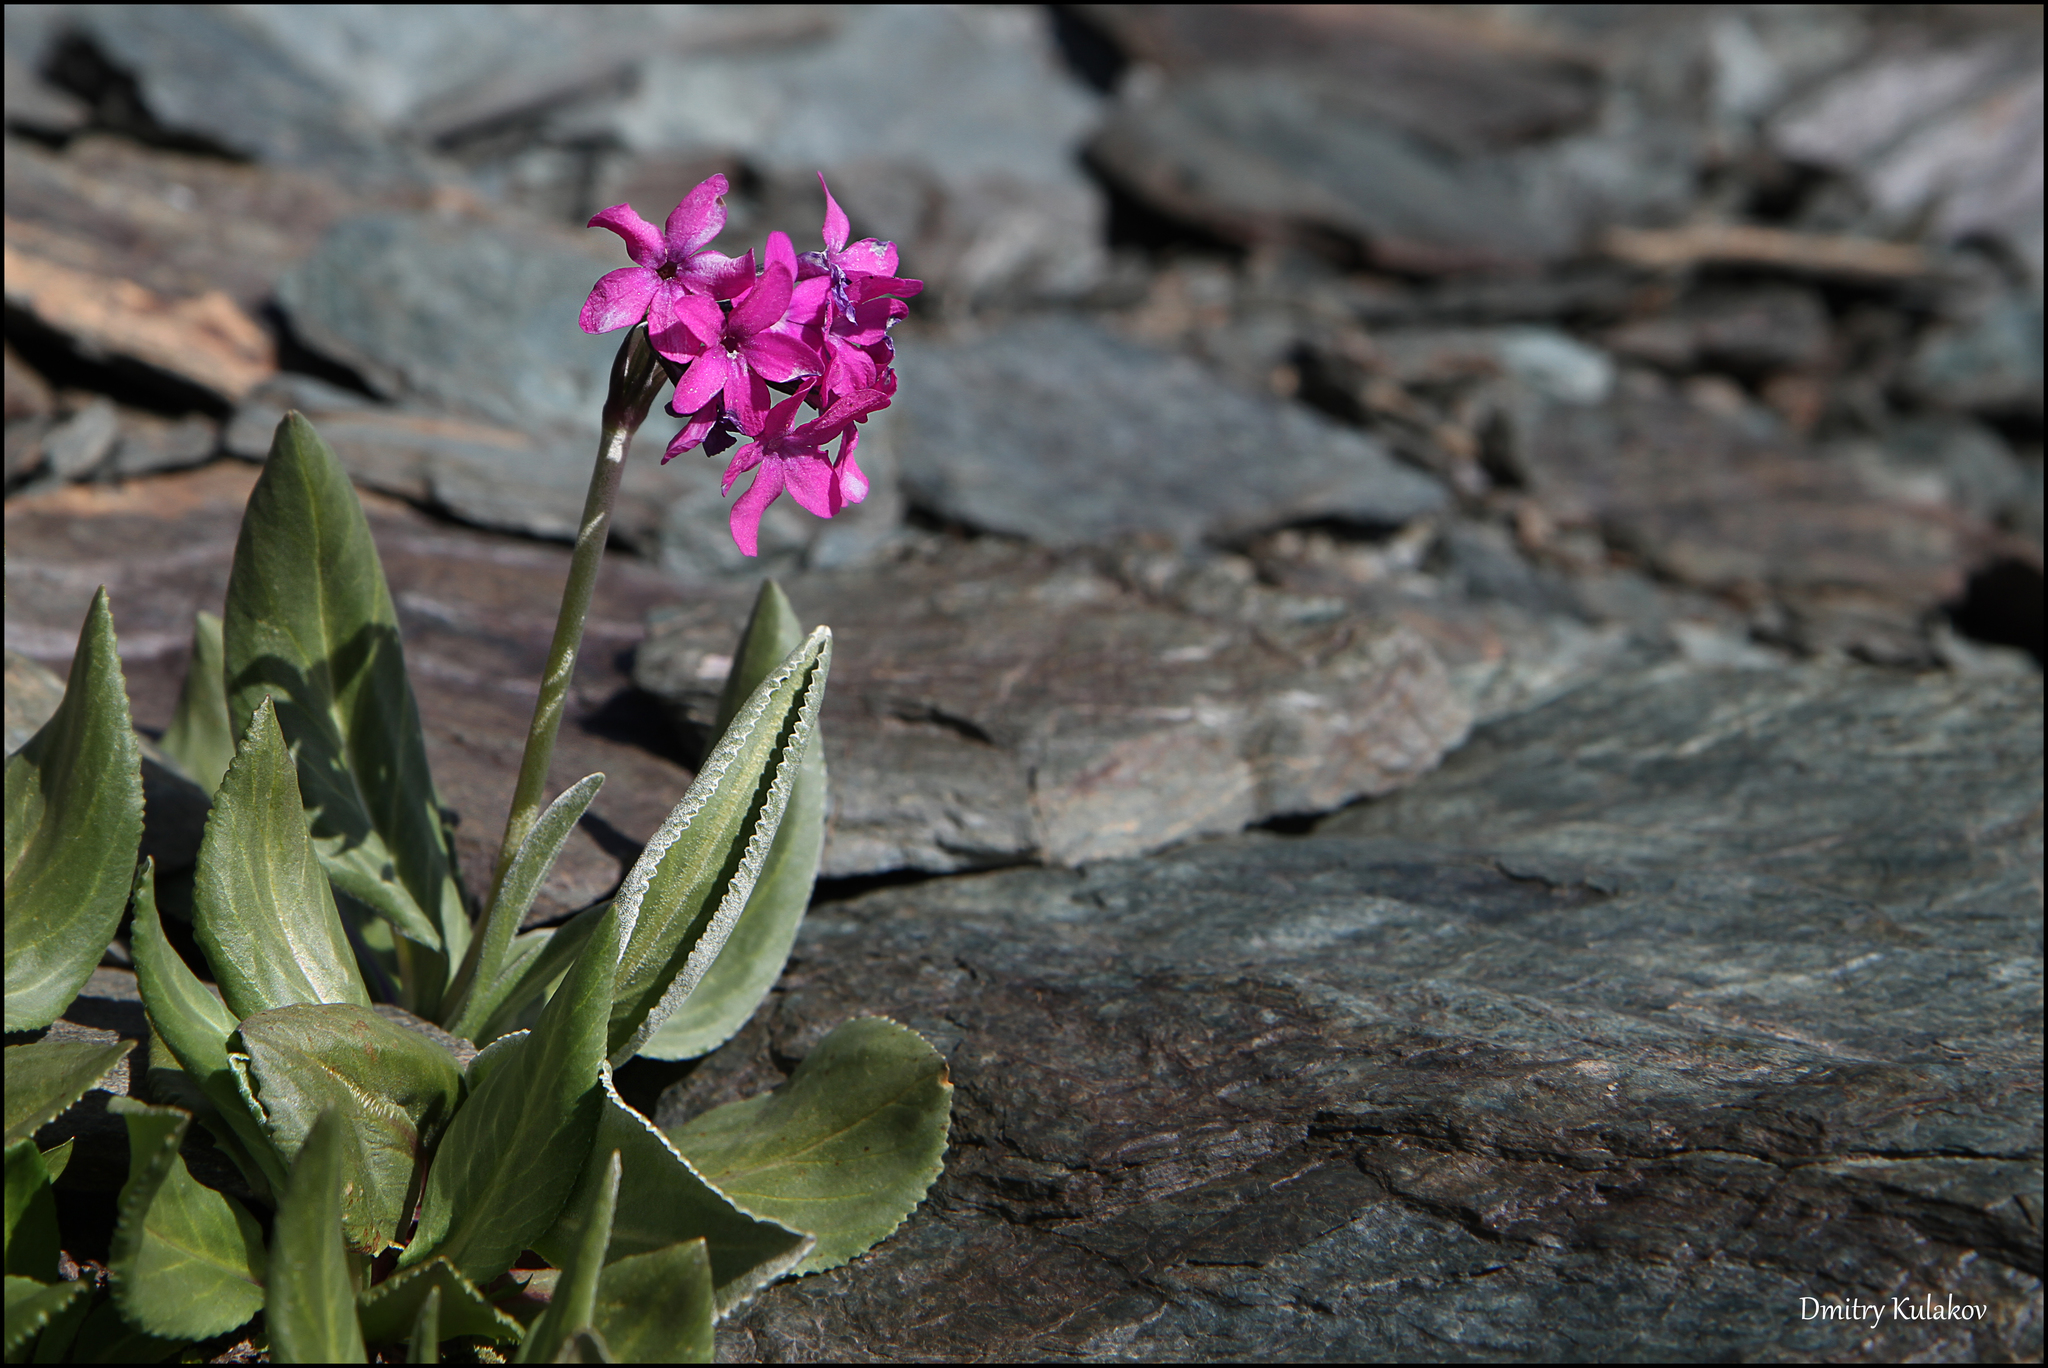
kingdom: Plantae
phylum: Tracheophyta
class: Magnoliopsida
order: Ericales
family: Primulaceae
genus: Primula
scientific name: Primula nivalis
